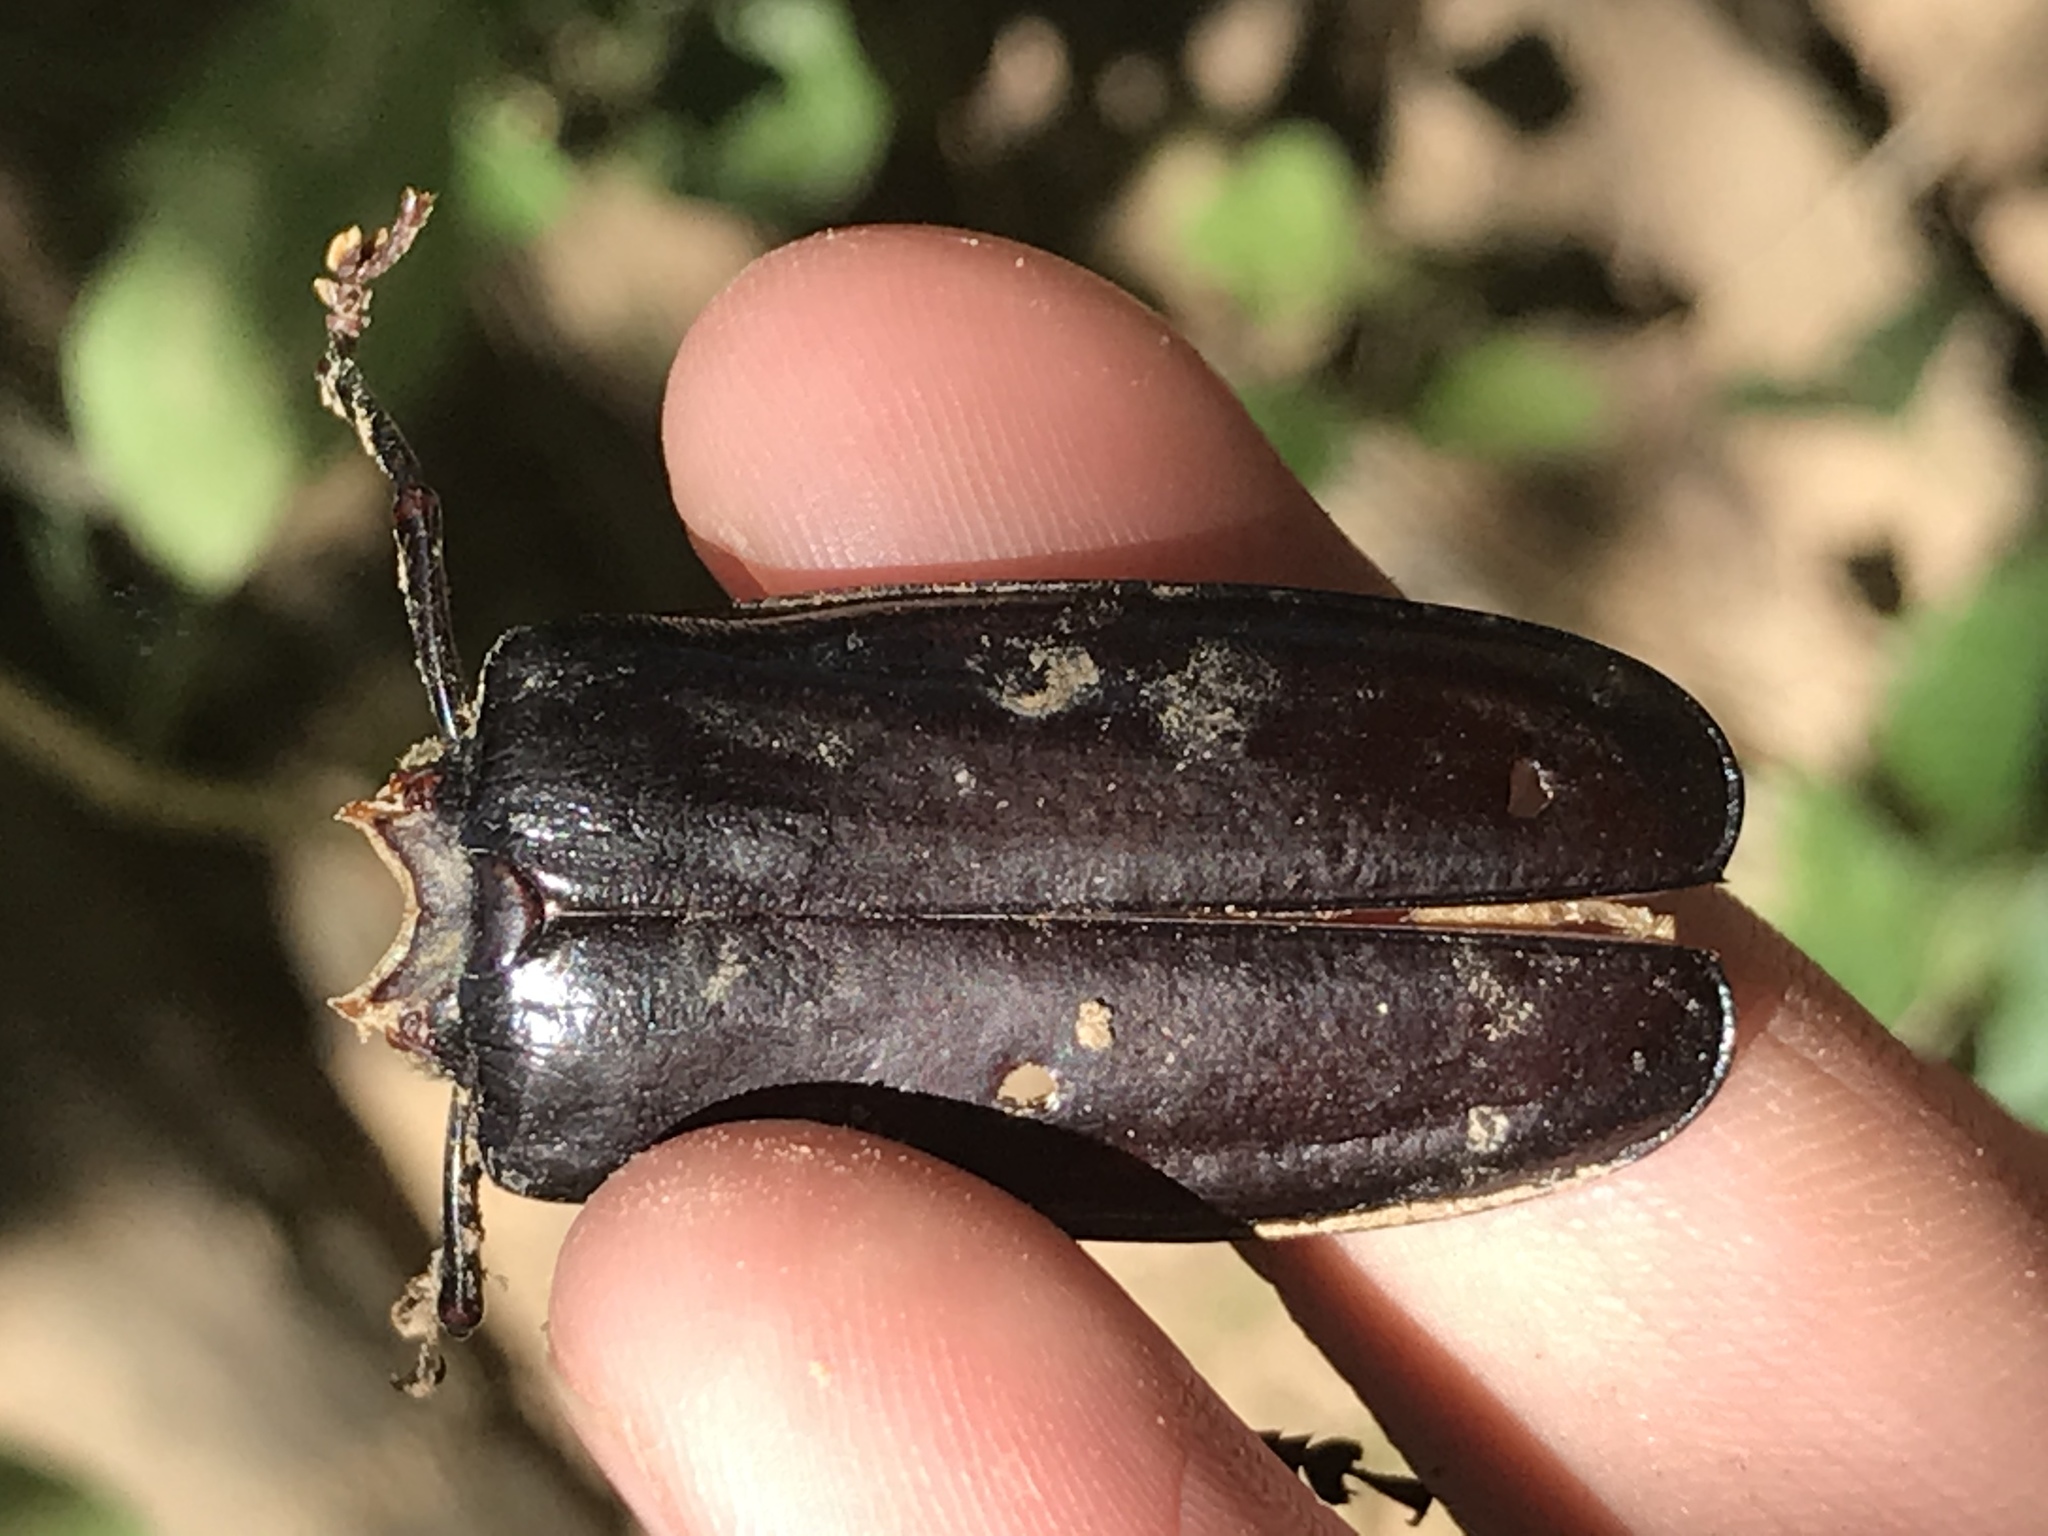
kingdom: Animalia
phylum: Arthropoda
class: Insecta
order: Coleoptera
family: Cerambycidae
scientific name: Cerambycidae
